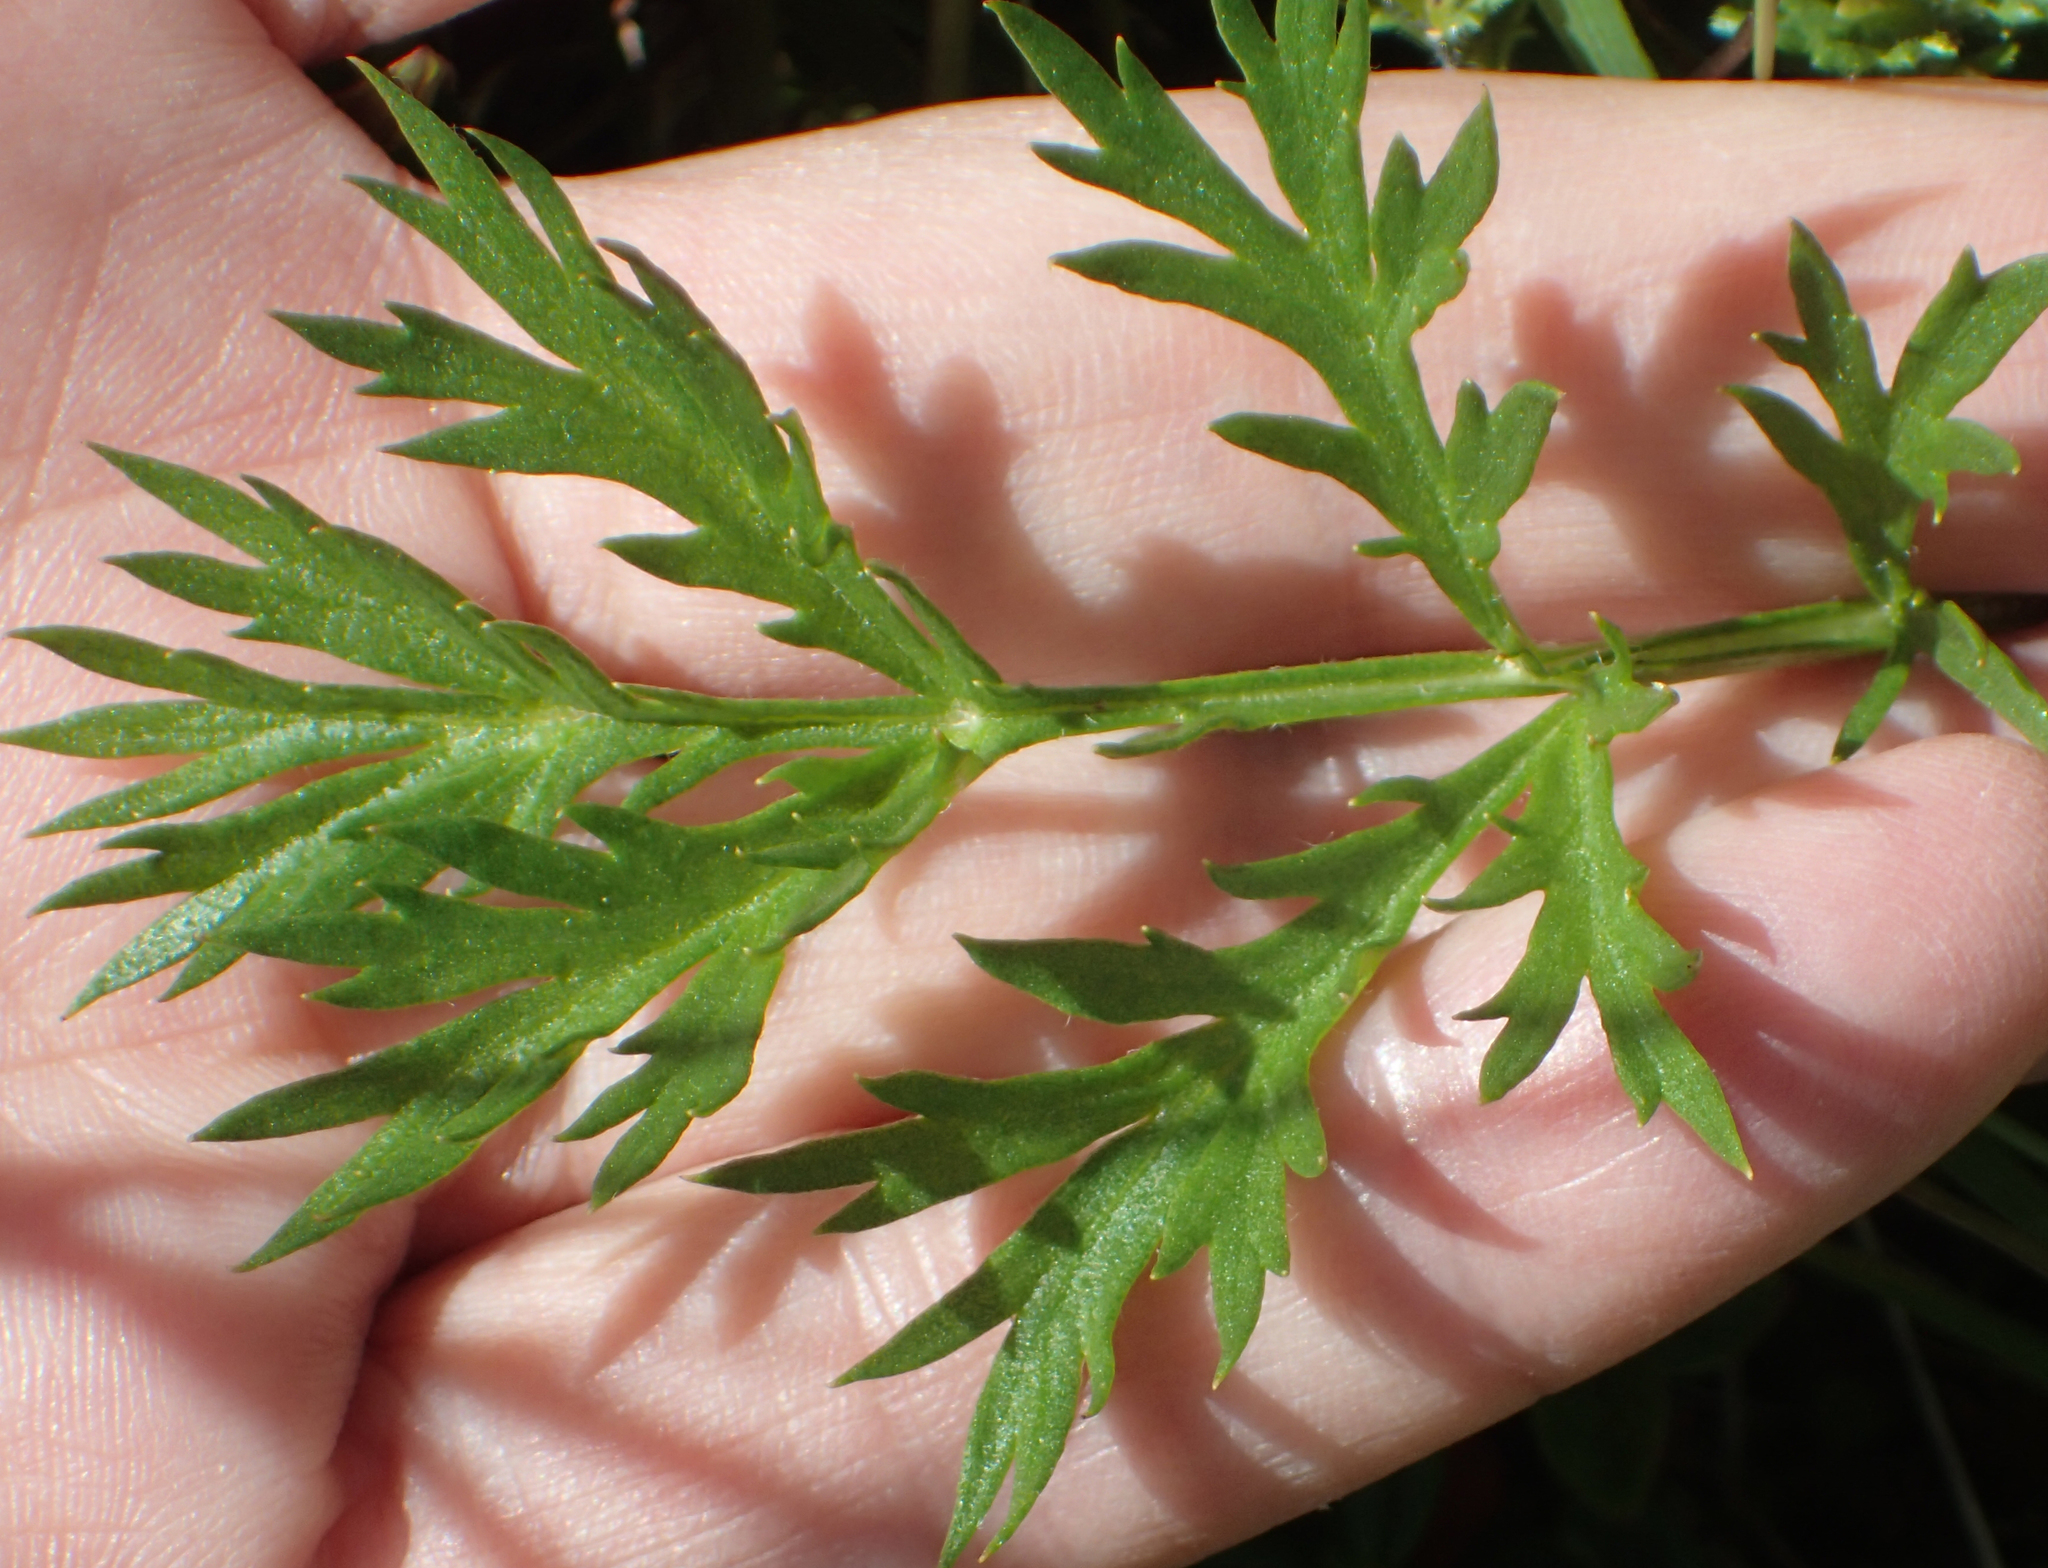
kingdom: Plantae
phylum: Tracheophyta
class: Magnoliopsida
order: Asterales
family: Asteraceae
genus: Artemisia
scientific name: Artemisia norvegica
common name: Norwegian mugwort
